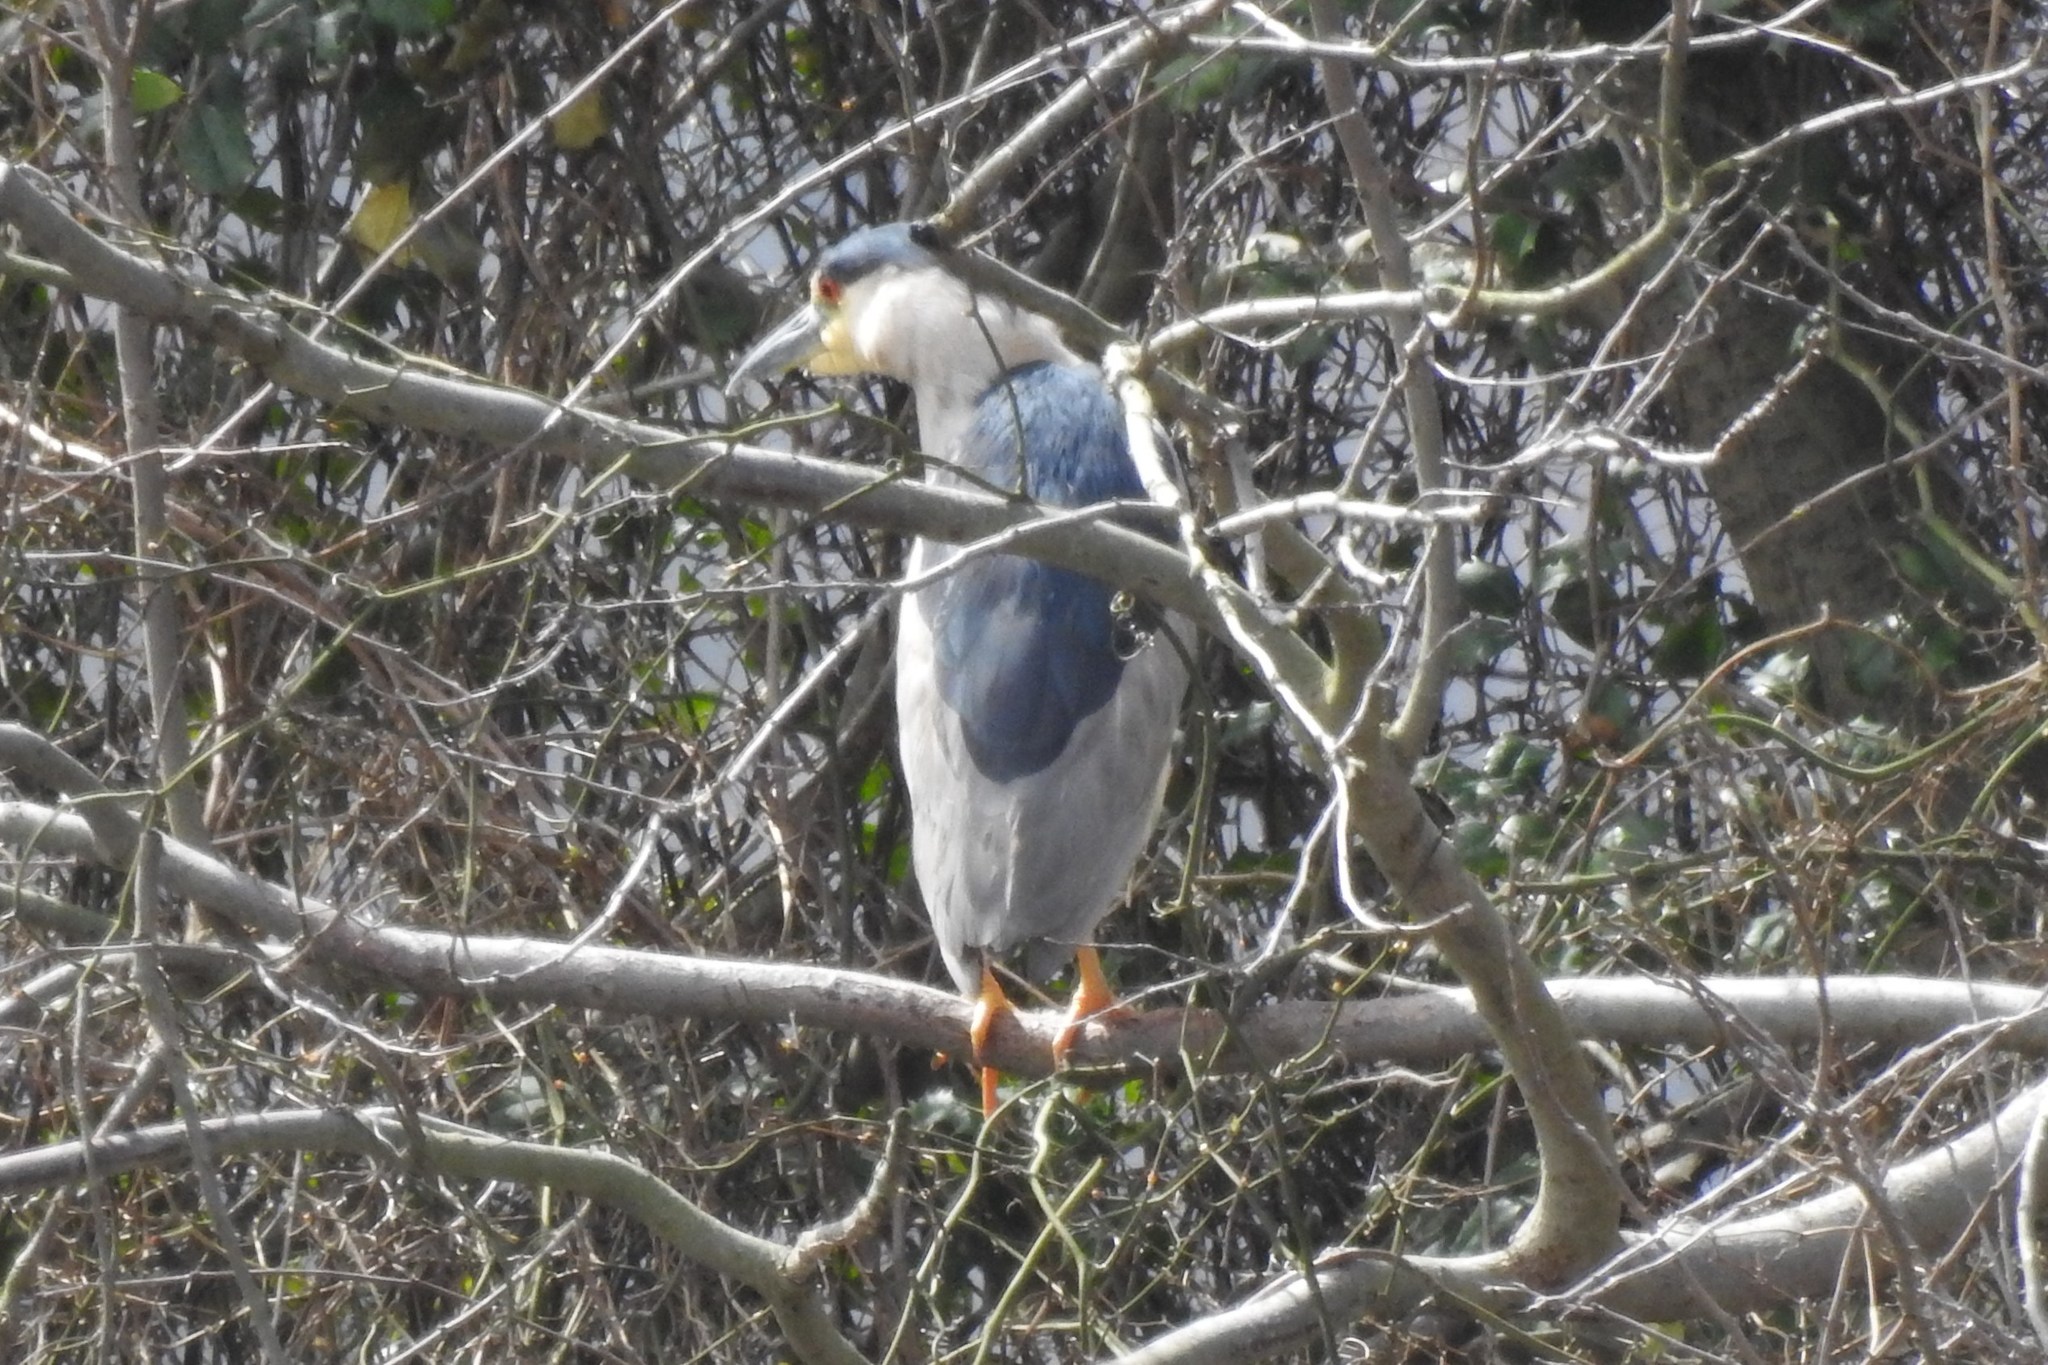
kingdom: Animalia
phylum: Chordata
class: Aves
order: Pelecaniformes
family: Ardeidae
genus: Nycticorax
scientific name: Nycticorax nycticorax
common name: Black-crowned night heron
